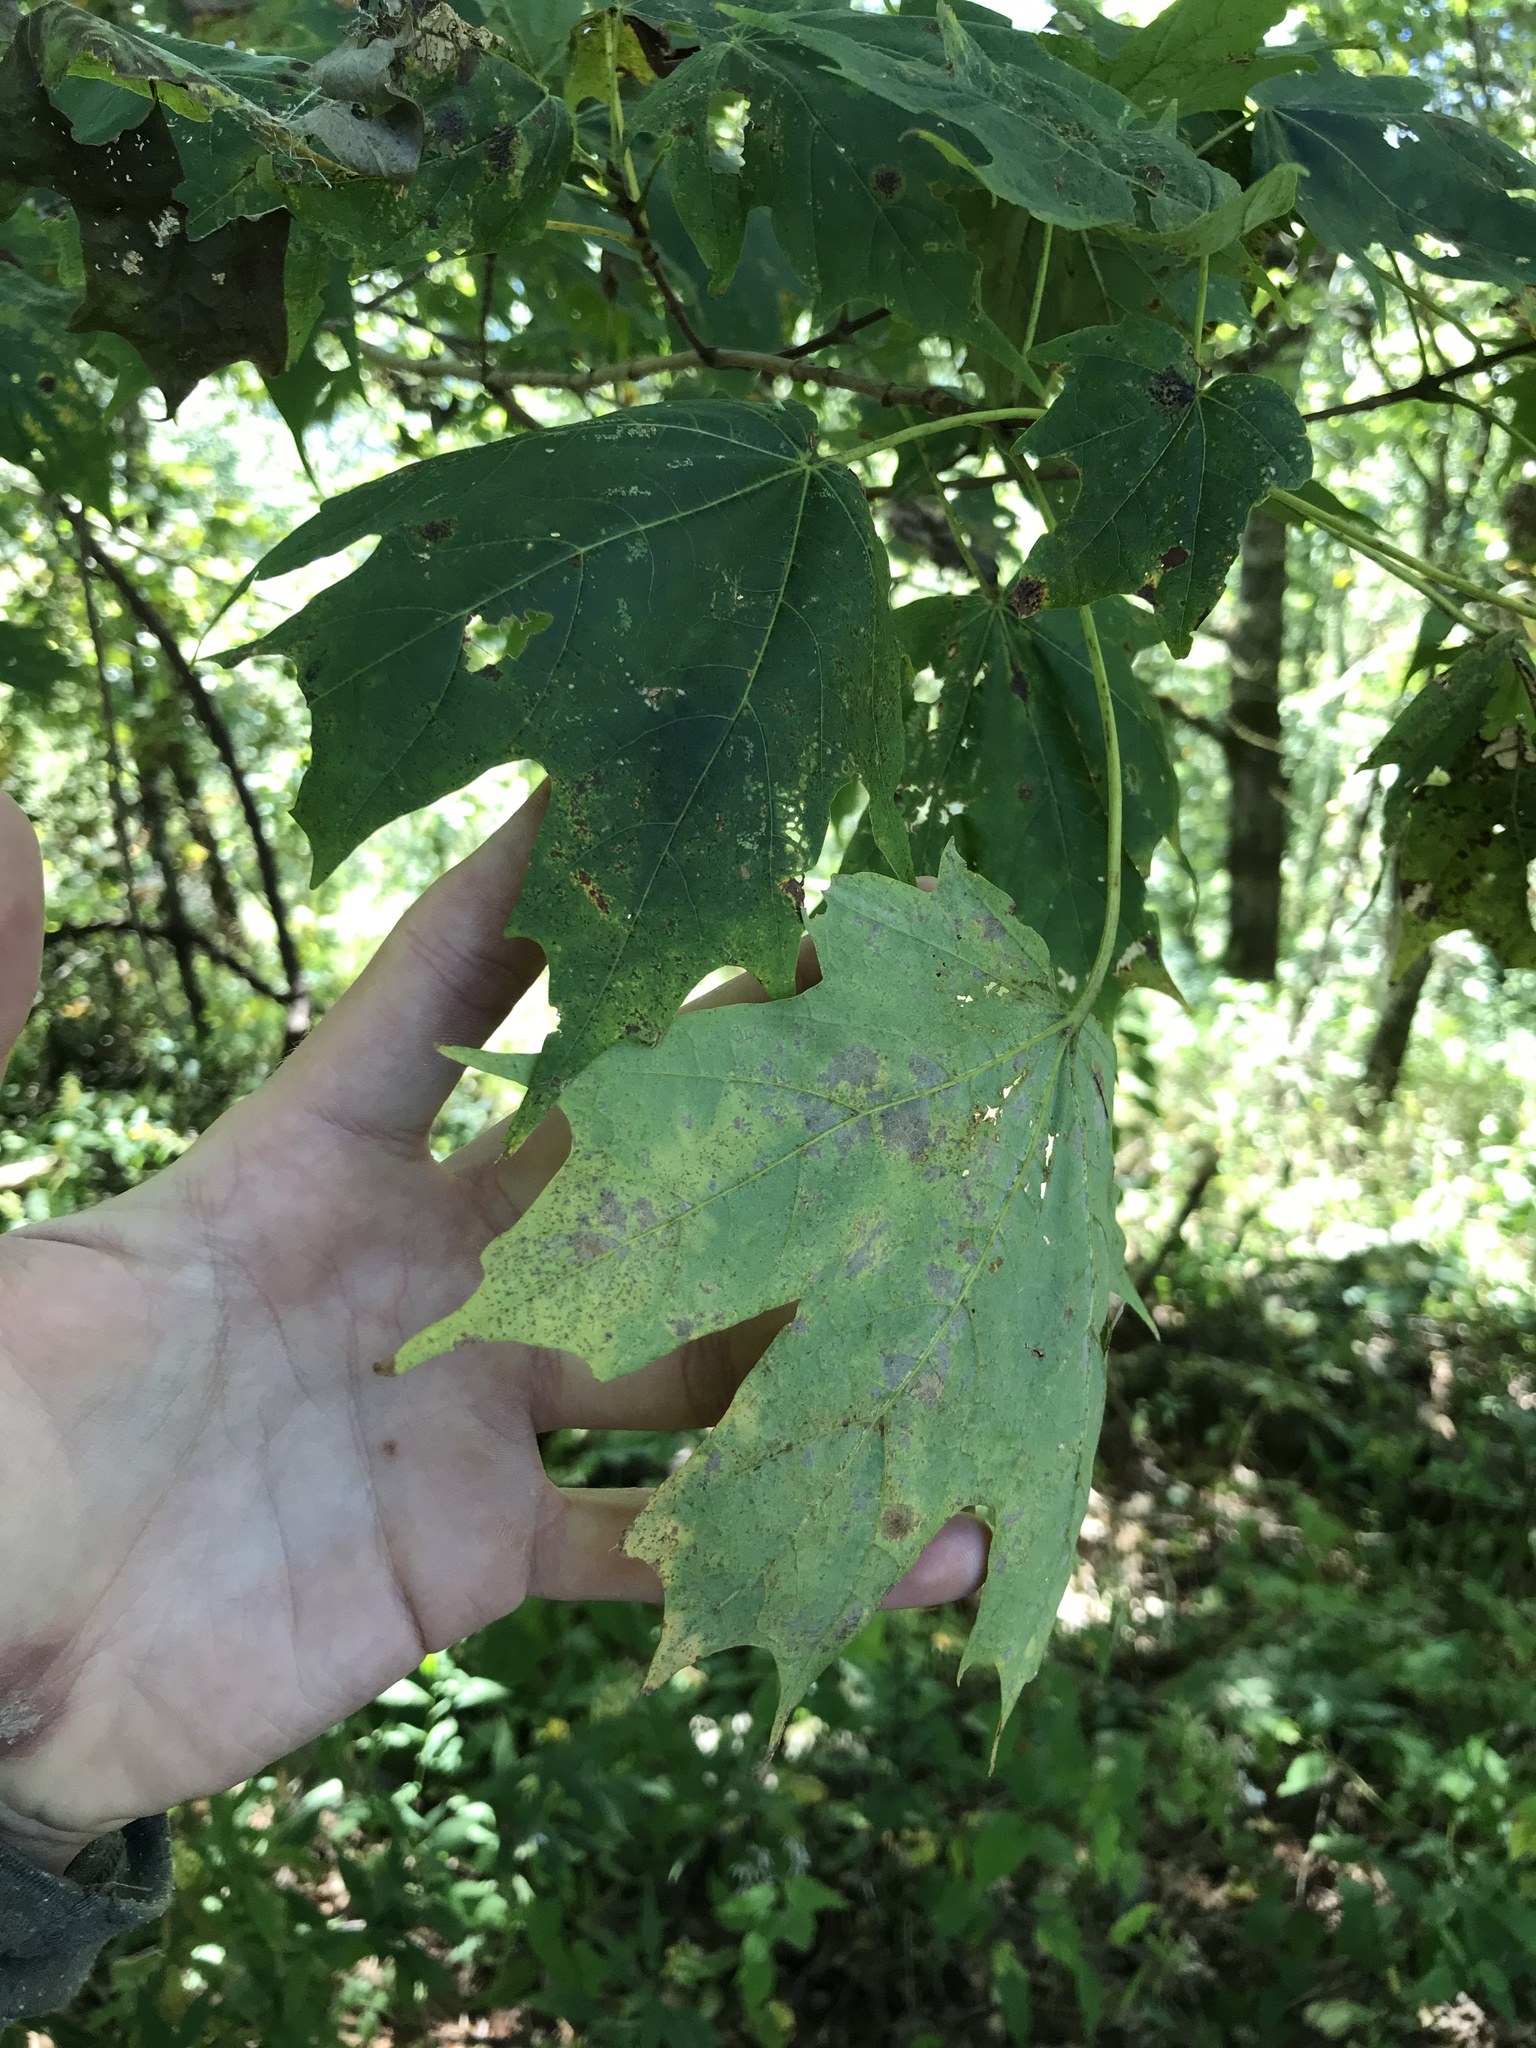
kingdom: Plantae
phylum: Tracheophyta
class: Magnoliopsida
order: Sapindales
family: Sapindaceae
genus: Acer
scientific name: Acer saccharum
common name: Sugar maple
